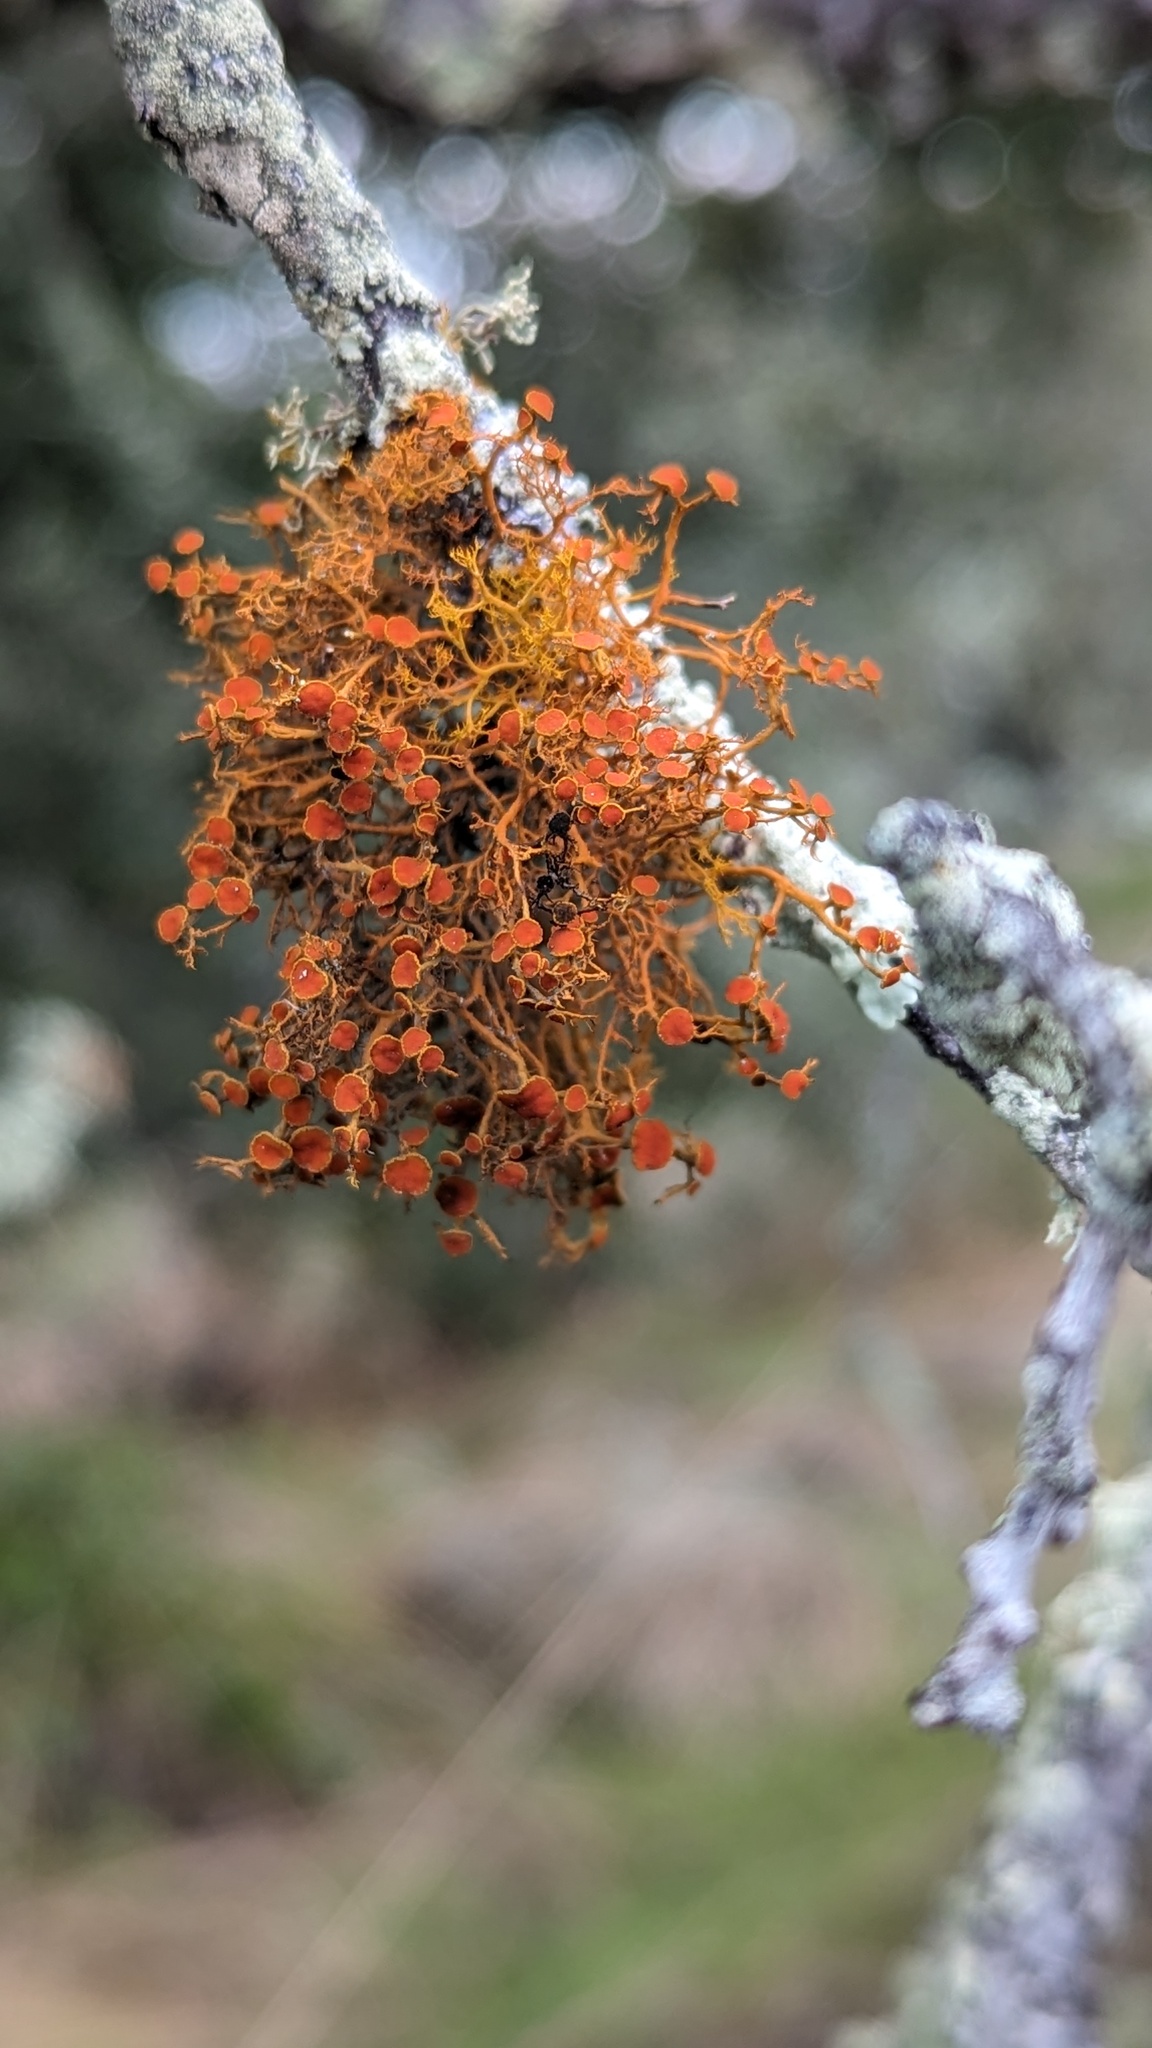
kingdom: Fungi
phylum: Ascomycota
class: Lecanoromycetes
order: Teloschistales
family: Teloschistaceae
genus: Teloschistes
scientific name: Teloschistes flavicans
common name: Golden hair-lichen
